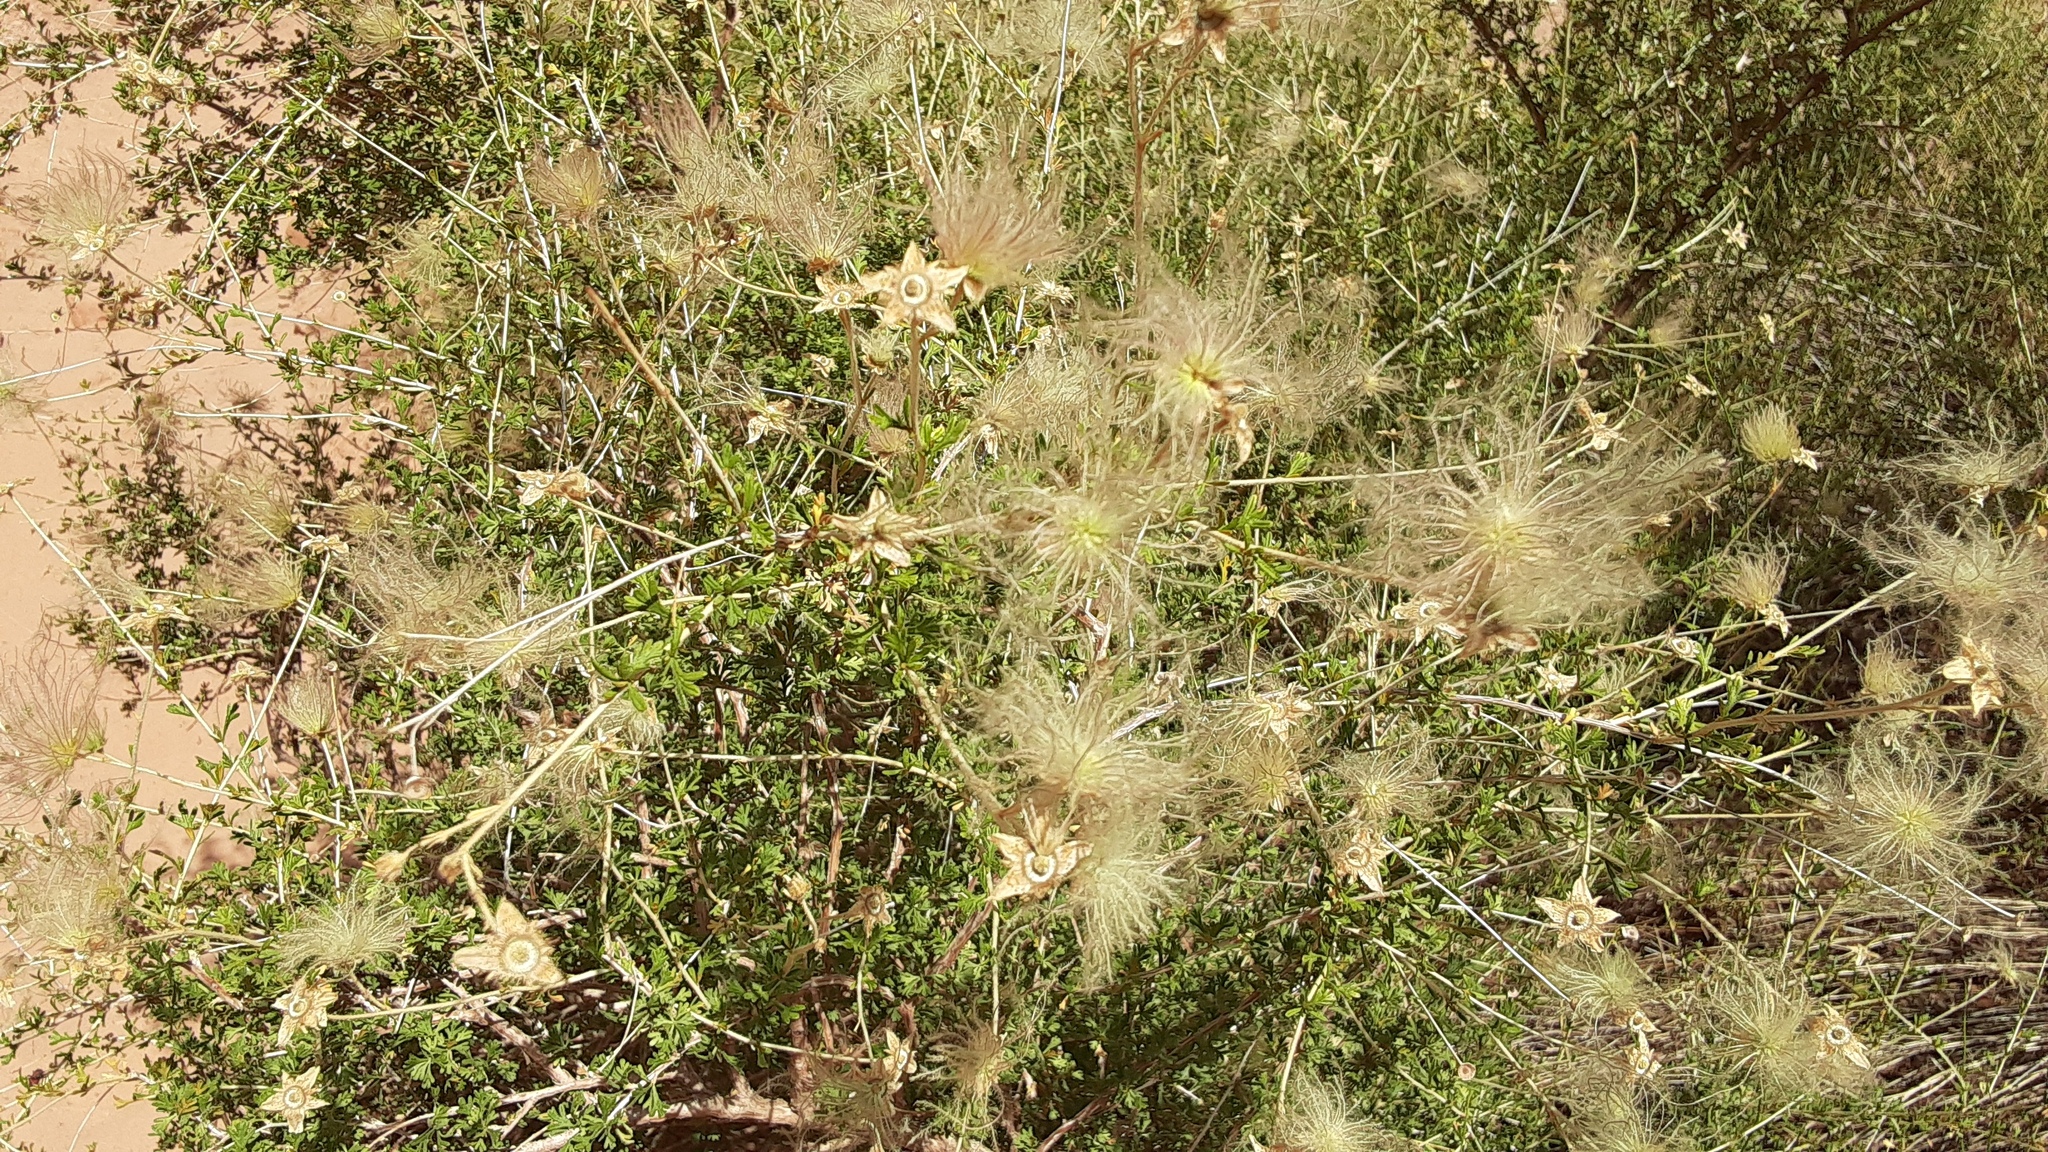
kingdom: Plantae
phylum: Tracheophyta
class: Magnoliopsida
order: Rosales
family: Rosaceae
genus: Fallugia
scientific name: Fallugia paradoxa
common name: Apache-plume
